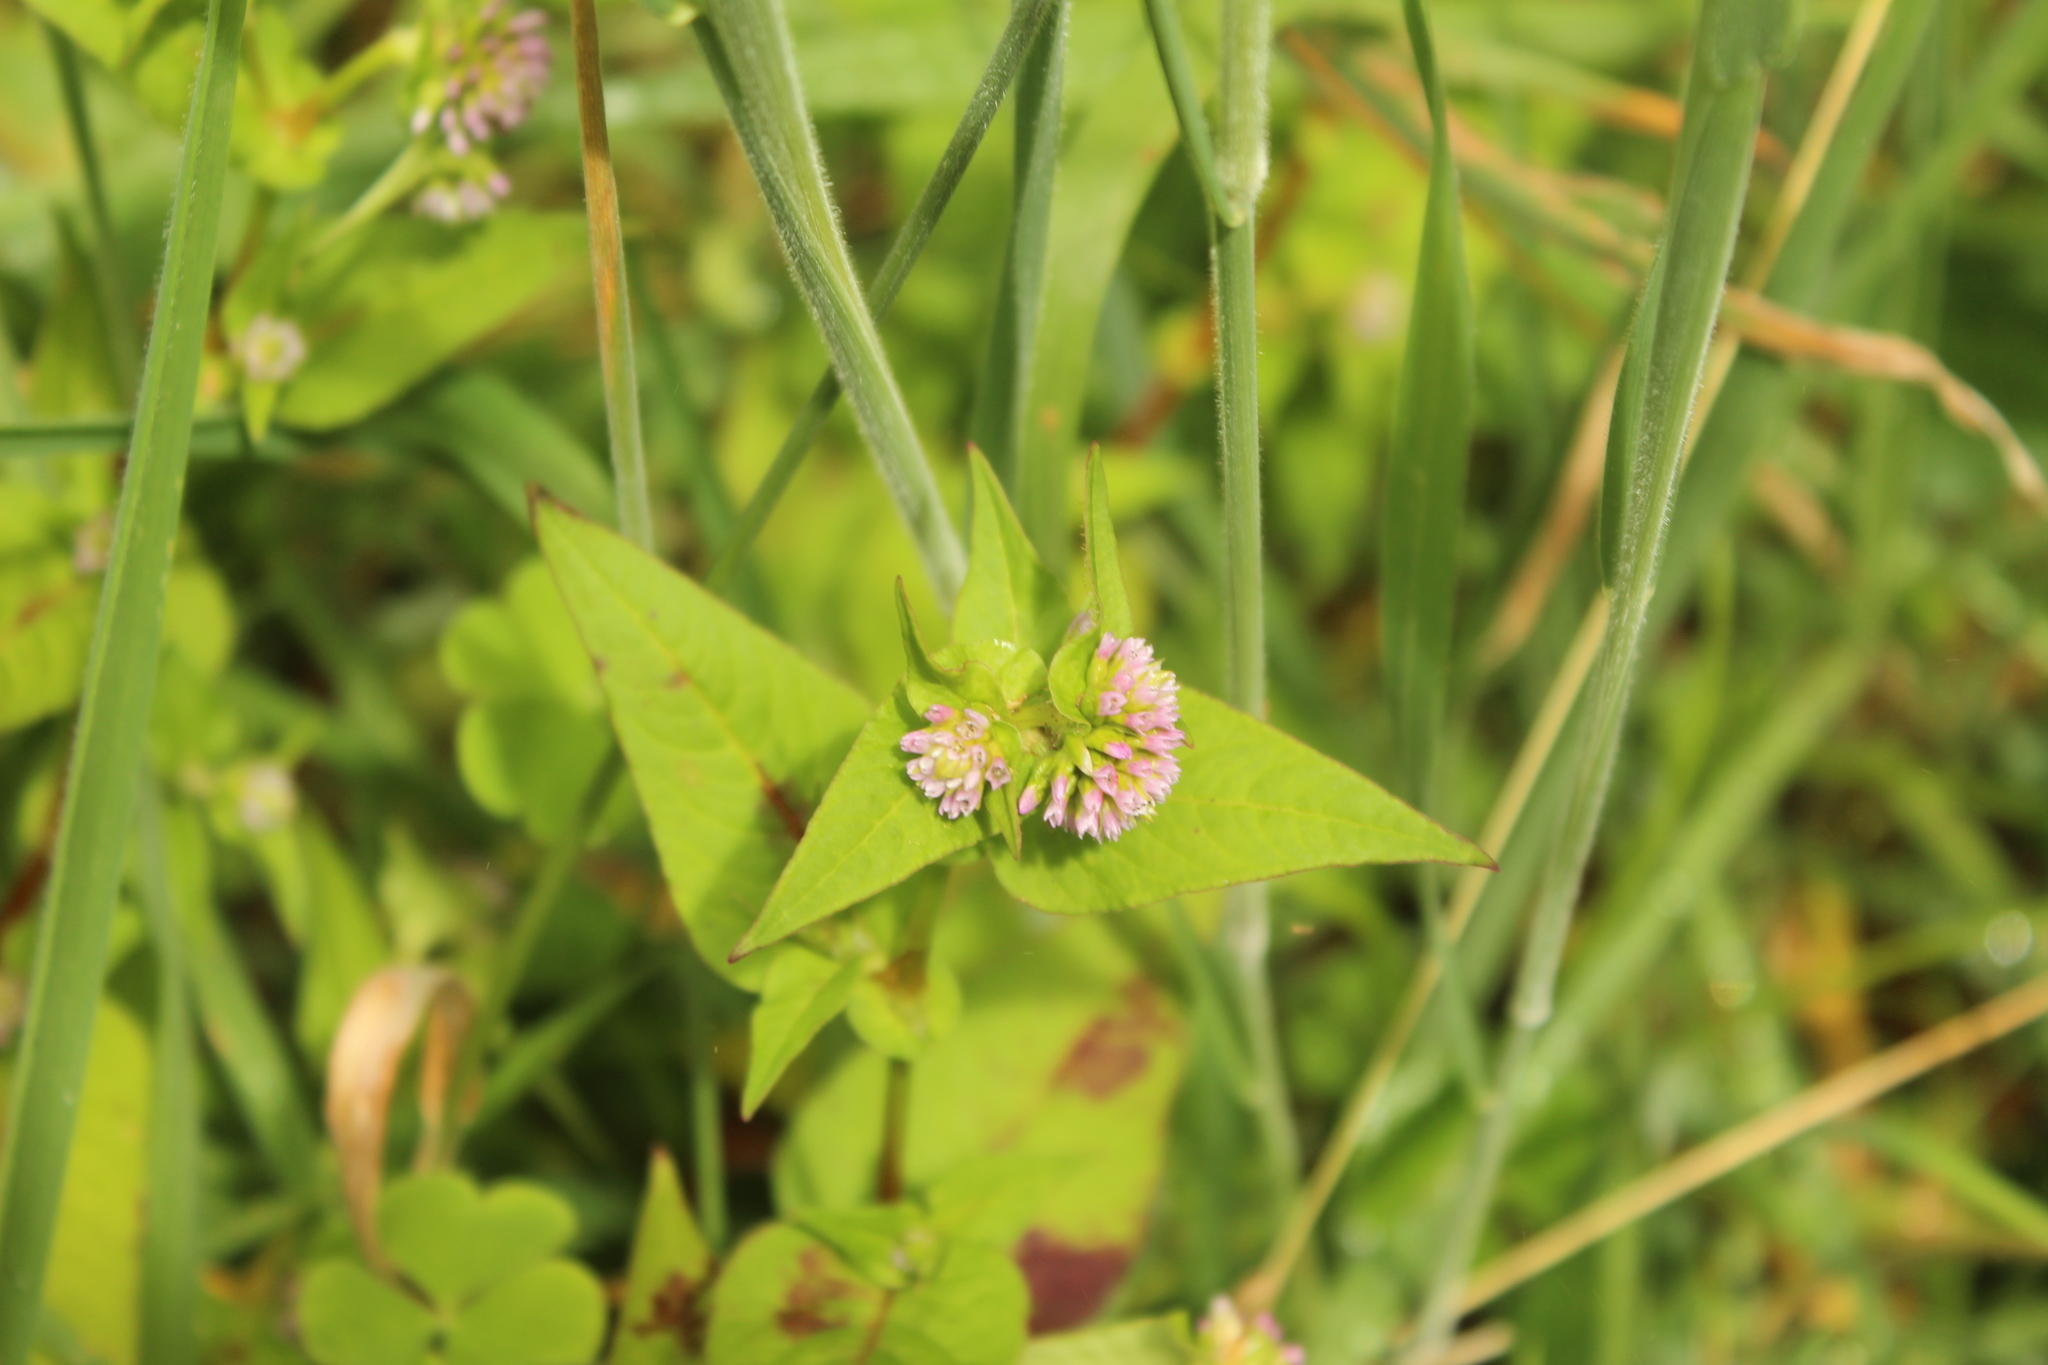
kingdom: Plantae
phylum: Tracheophyta
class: Magnoliopsida
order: Caryophyllales
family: Polygonaceae
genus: Persicaria
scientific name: Persicaria nepalensis
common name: Nepal persicaria
